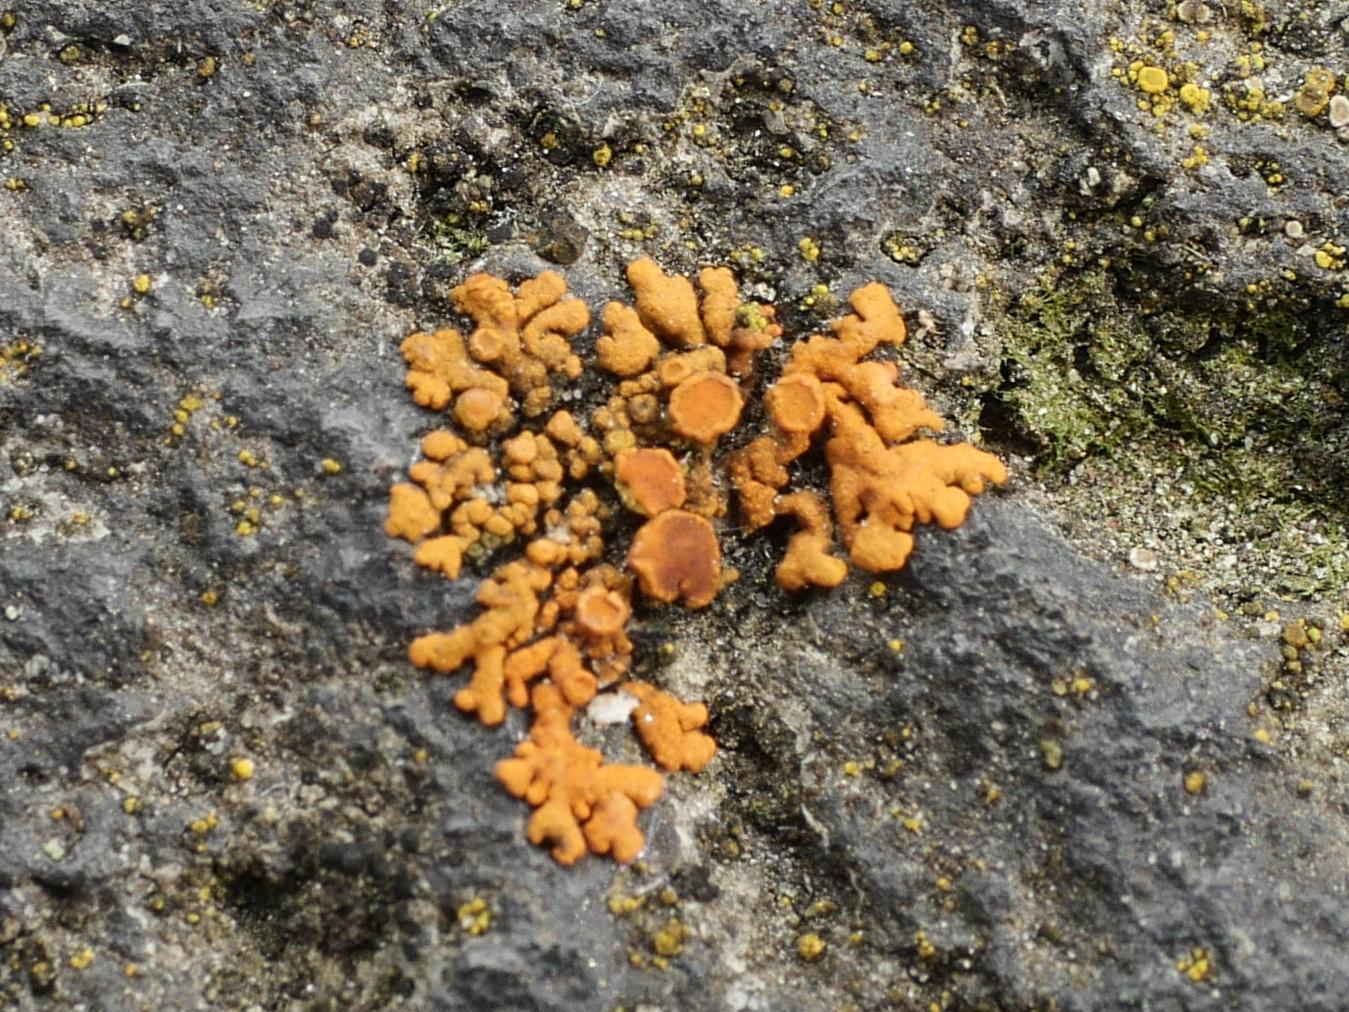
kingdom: Fungi
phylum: Ascomycota
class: Lecanoromycetes
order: Teloschistales
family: Teloschistaceae
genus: Xanthoria
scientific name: Xanthoria elegans
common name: Elegant sunburst lichen
